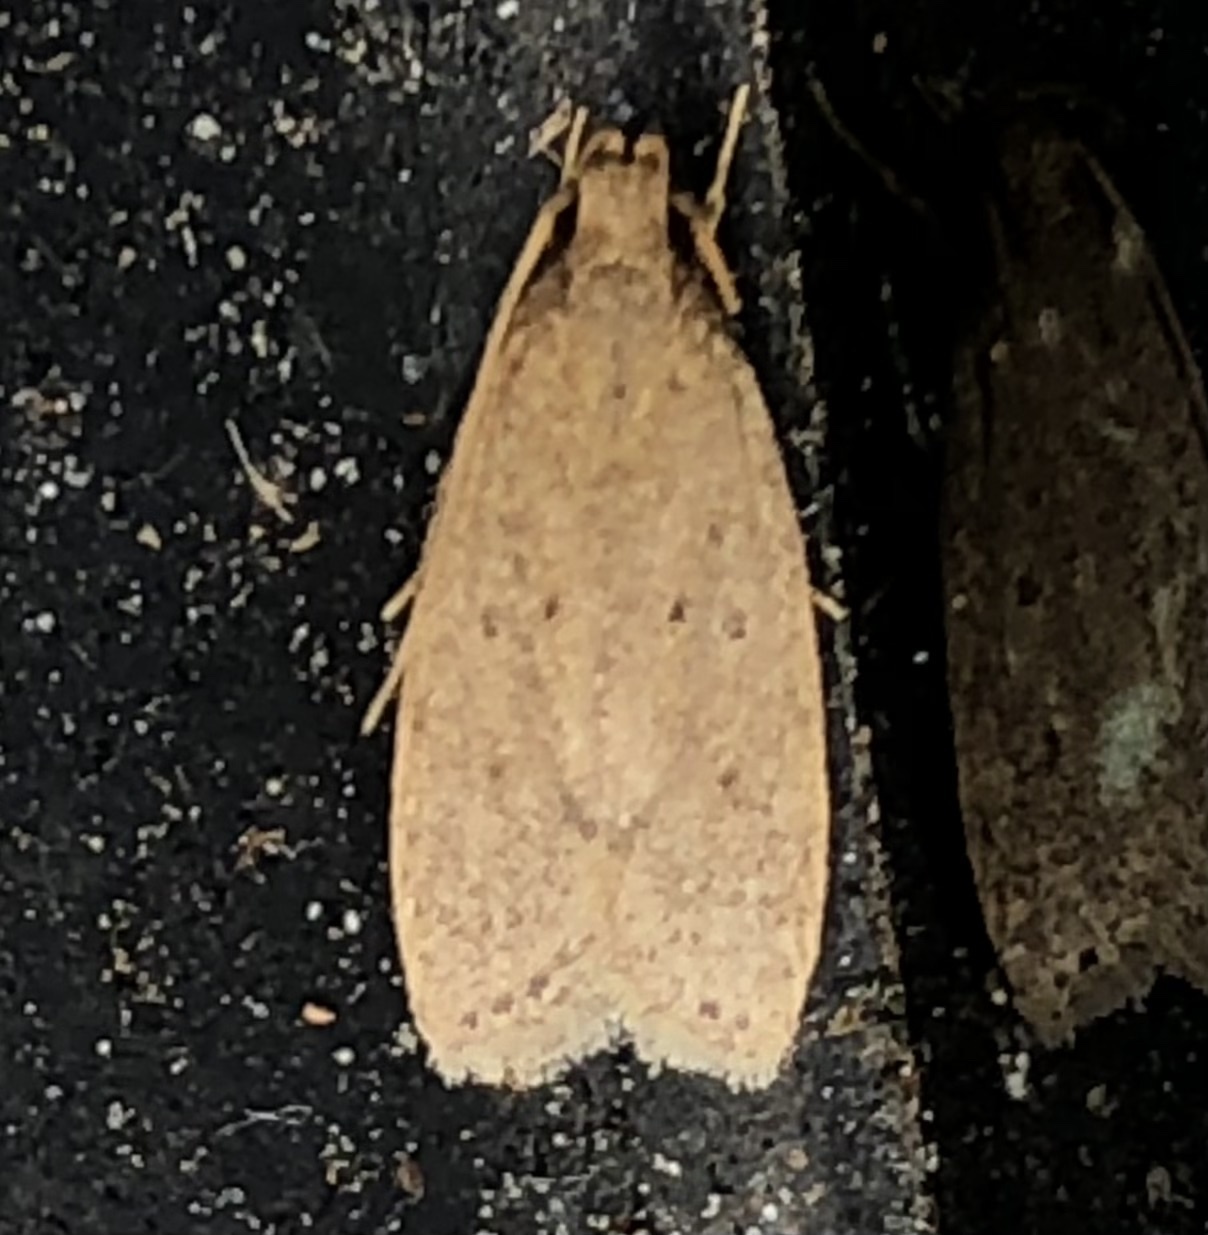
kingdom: Animalia
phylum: Arthropoda
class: Insecta
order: Lepidoptera
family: Autostichidae
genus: Autosticha
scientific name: Autosticha kyotensis
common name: Kyoto moth
